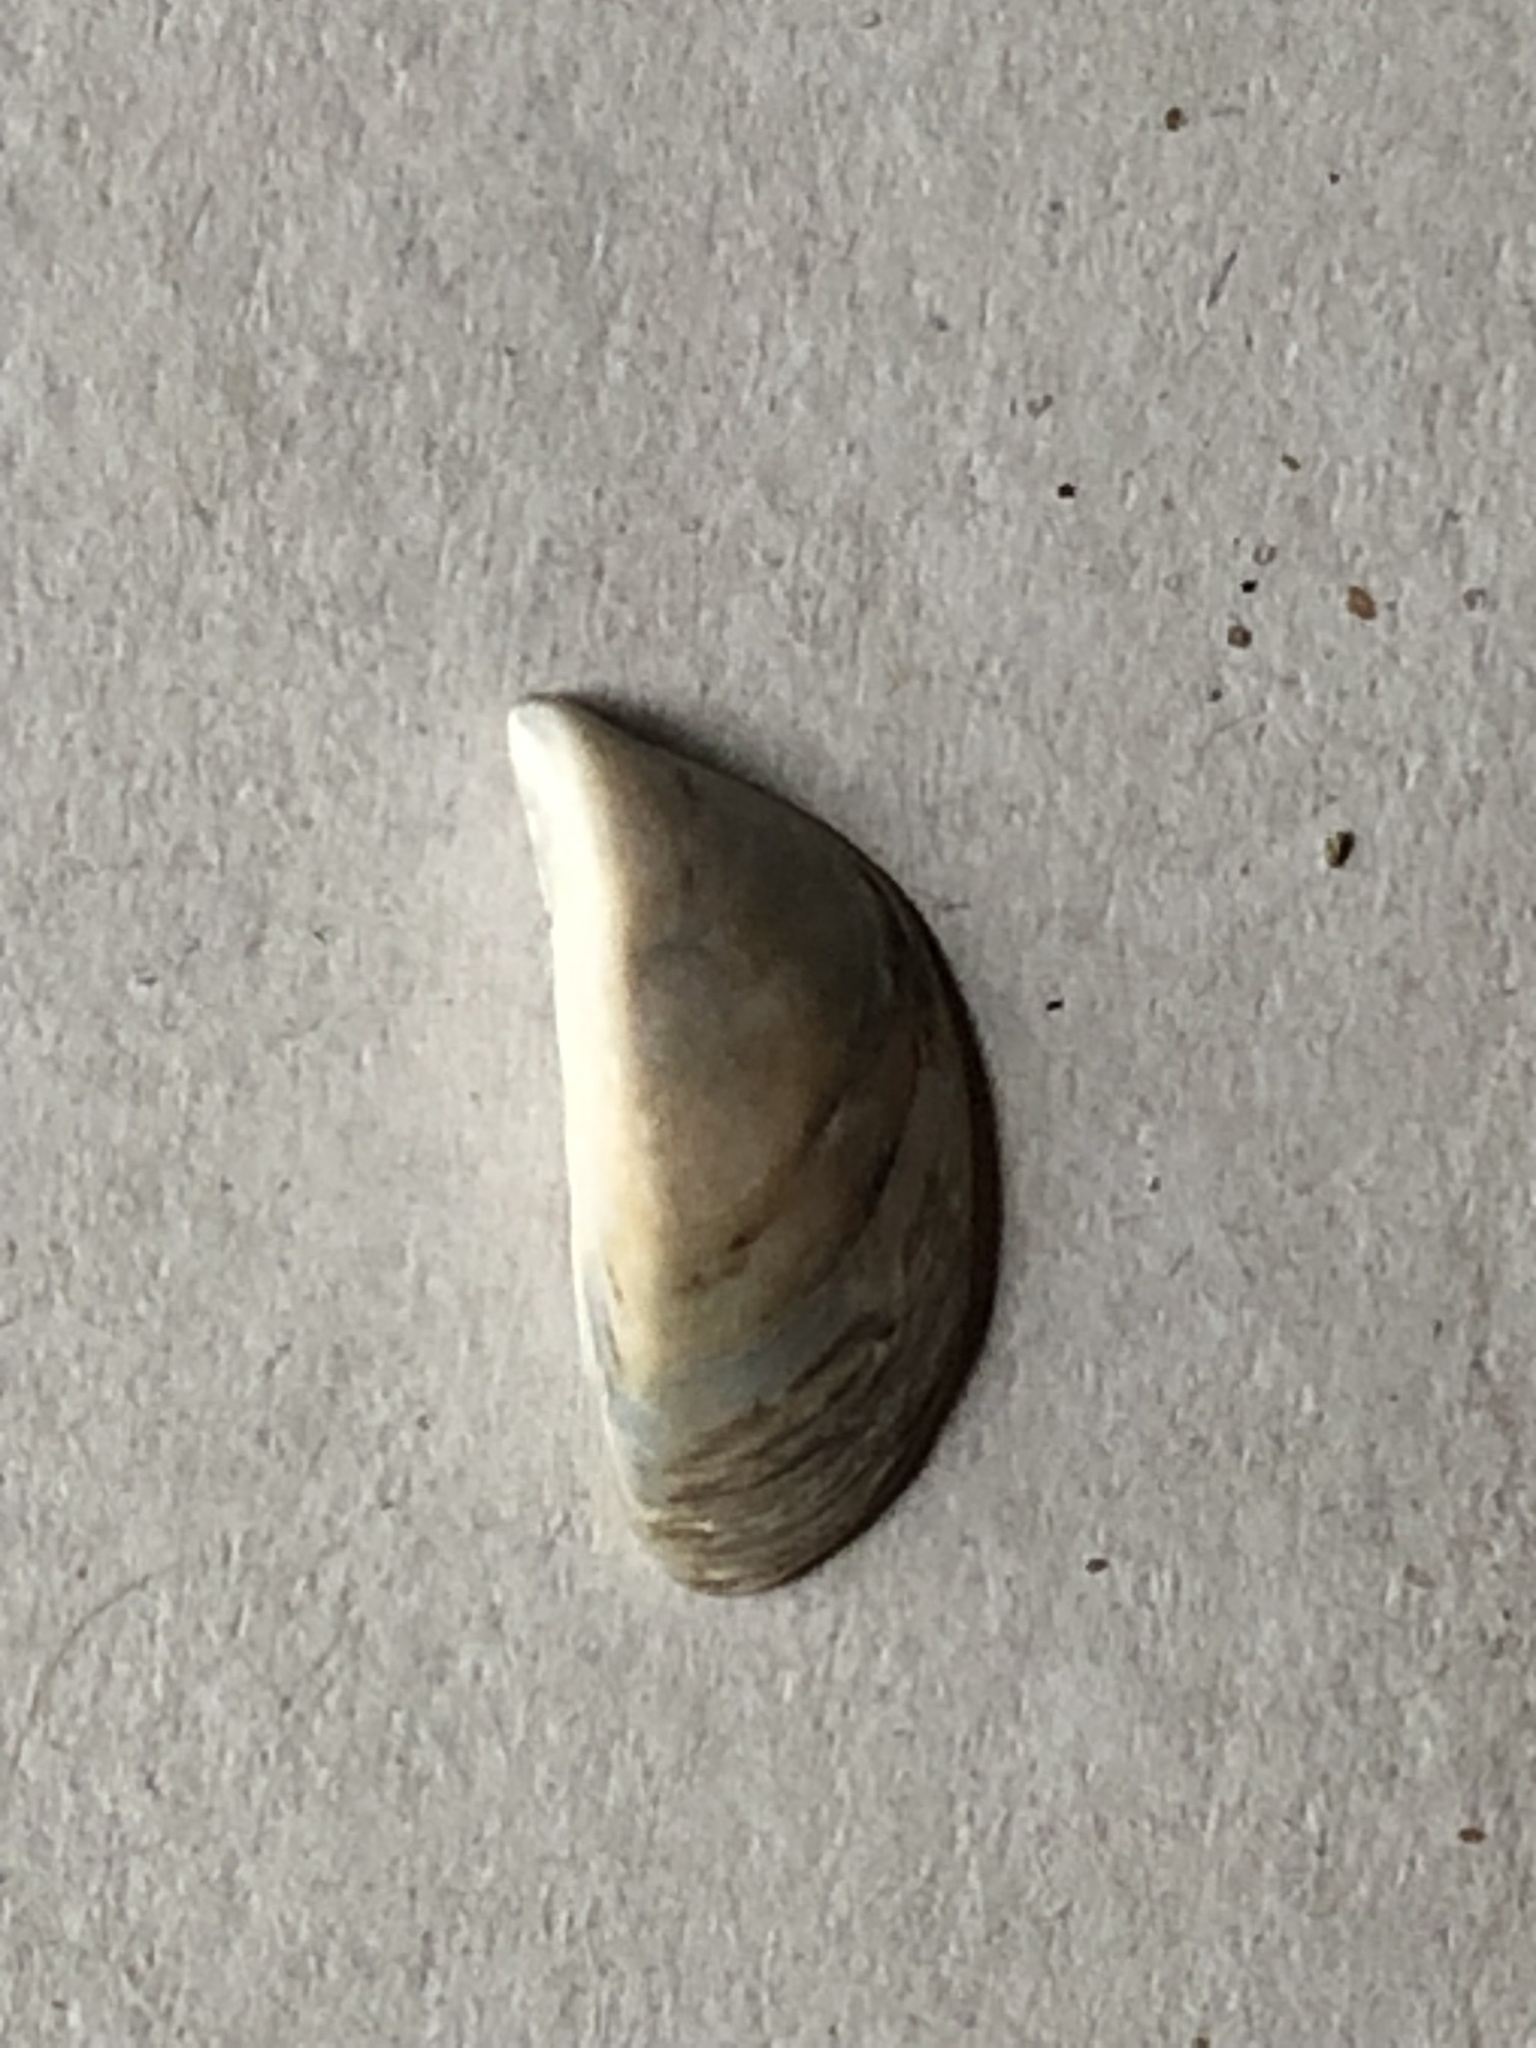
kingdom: Animalia
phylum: Mollusca
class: Bivalvia
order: Myida
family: Dreissenidae
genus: Dreissena
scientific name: Dreissena polymorpha
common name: Zebra mussel
